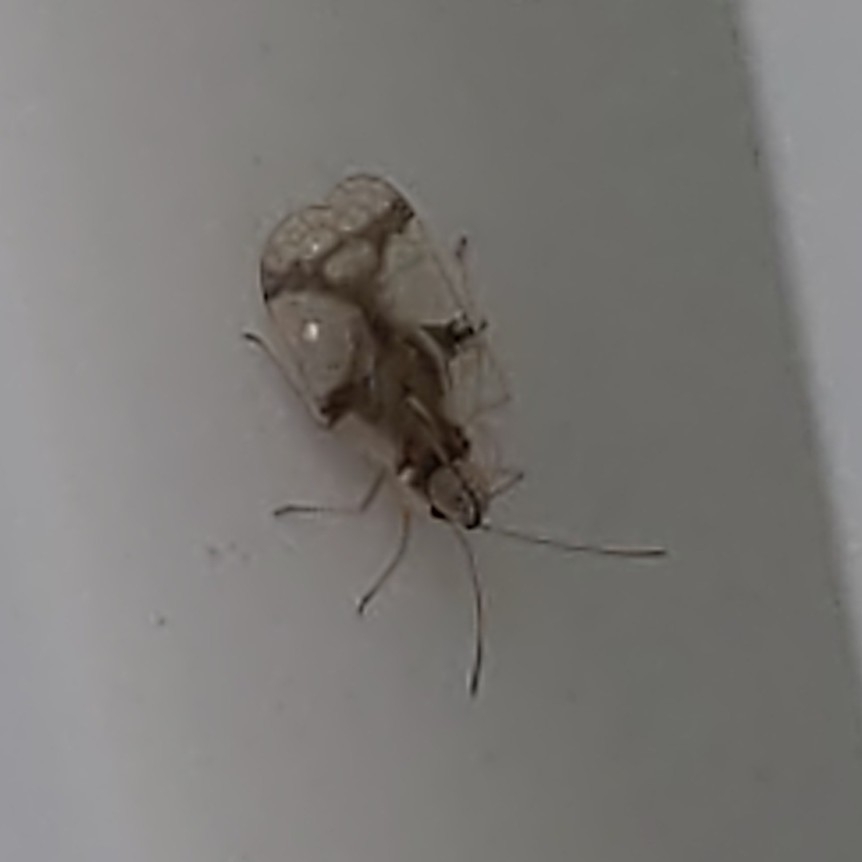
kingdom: Animalia
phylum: Arthropoda
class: Insecta
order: Hemiptera
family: Tingidae
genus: Stephanitis
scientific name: Stephanitis pyrioides
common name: Azalea lace bug
